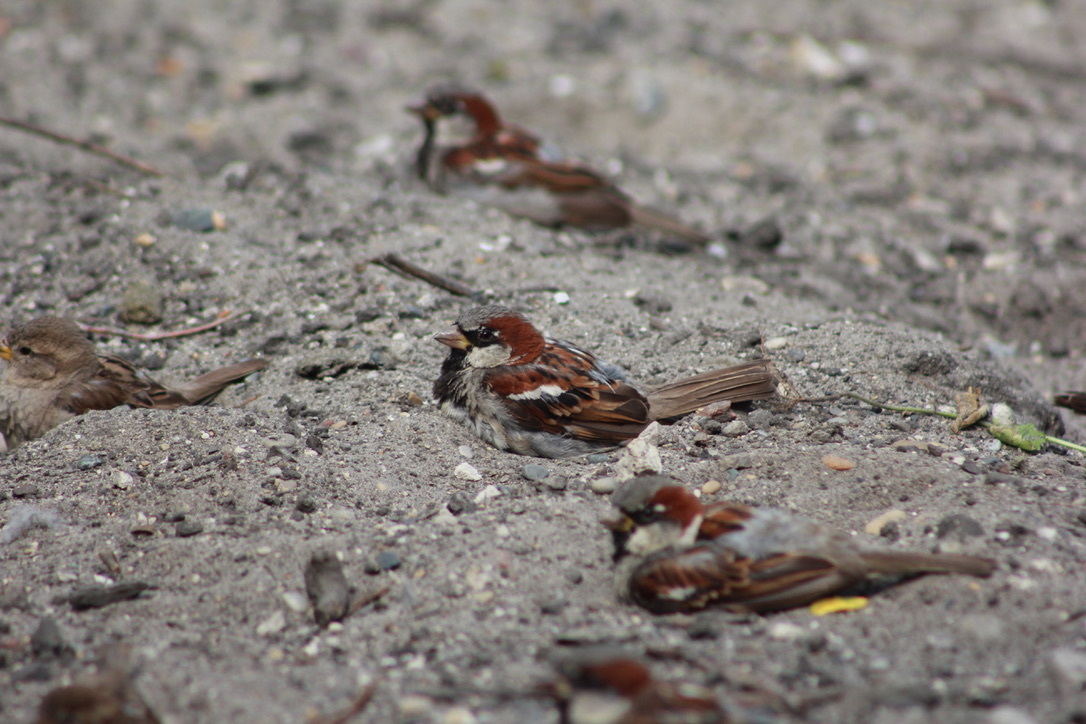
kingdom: Animalia
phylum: Chordata
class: Aves
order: Passeriformes
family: Passeridae
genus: Passer
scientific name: Passer domesticus
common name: House sparrow
